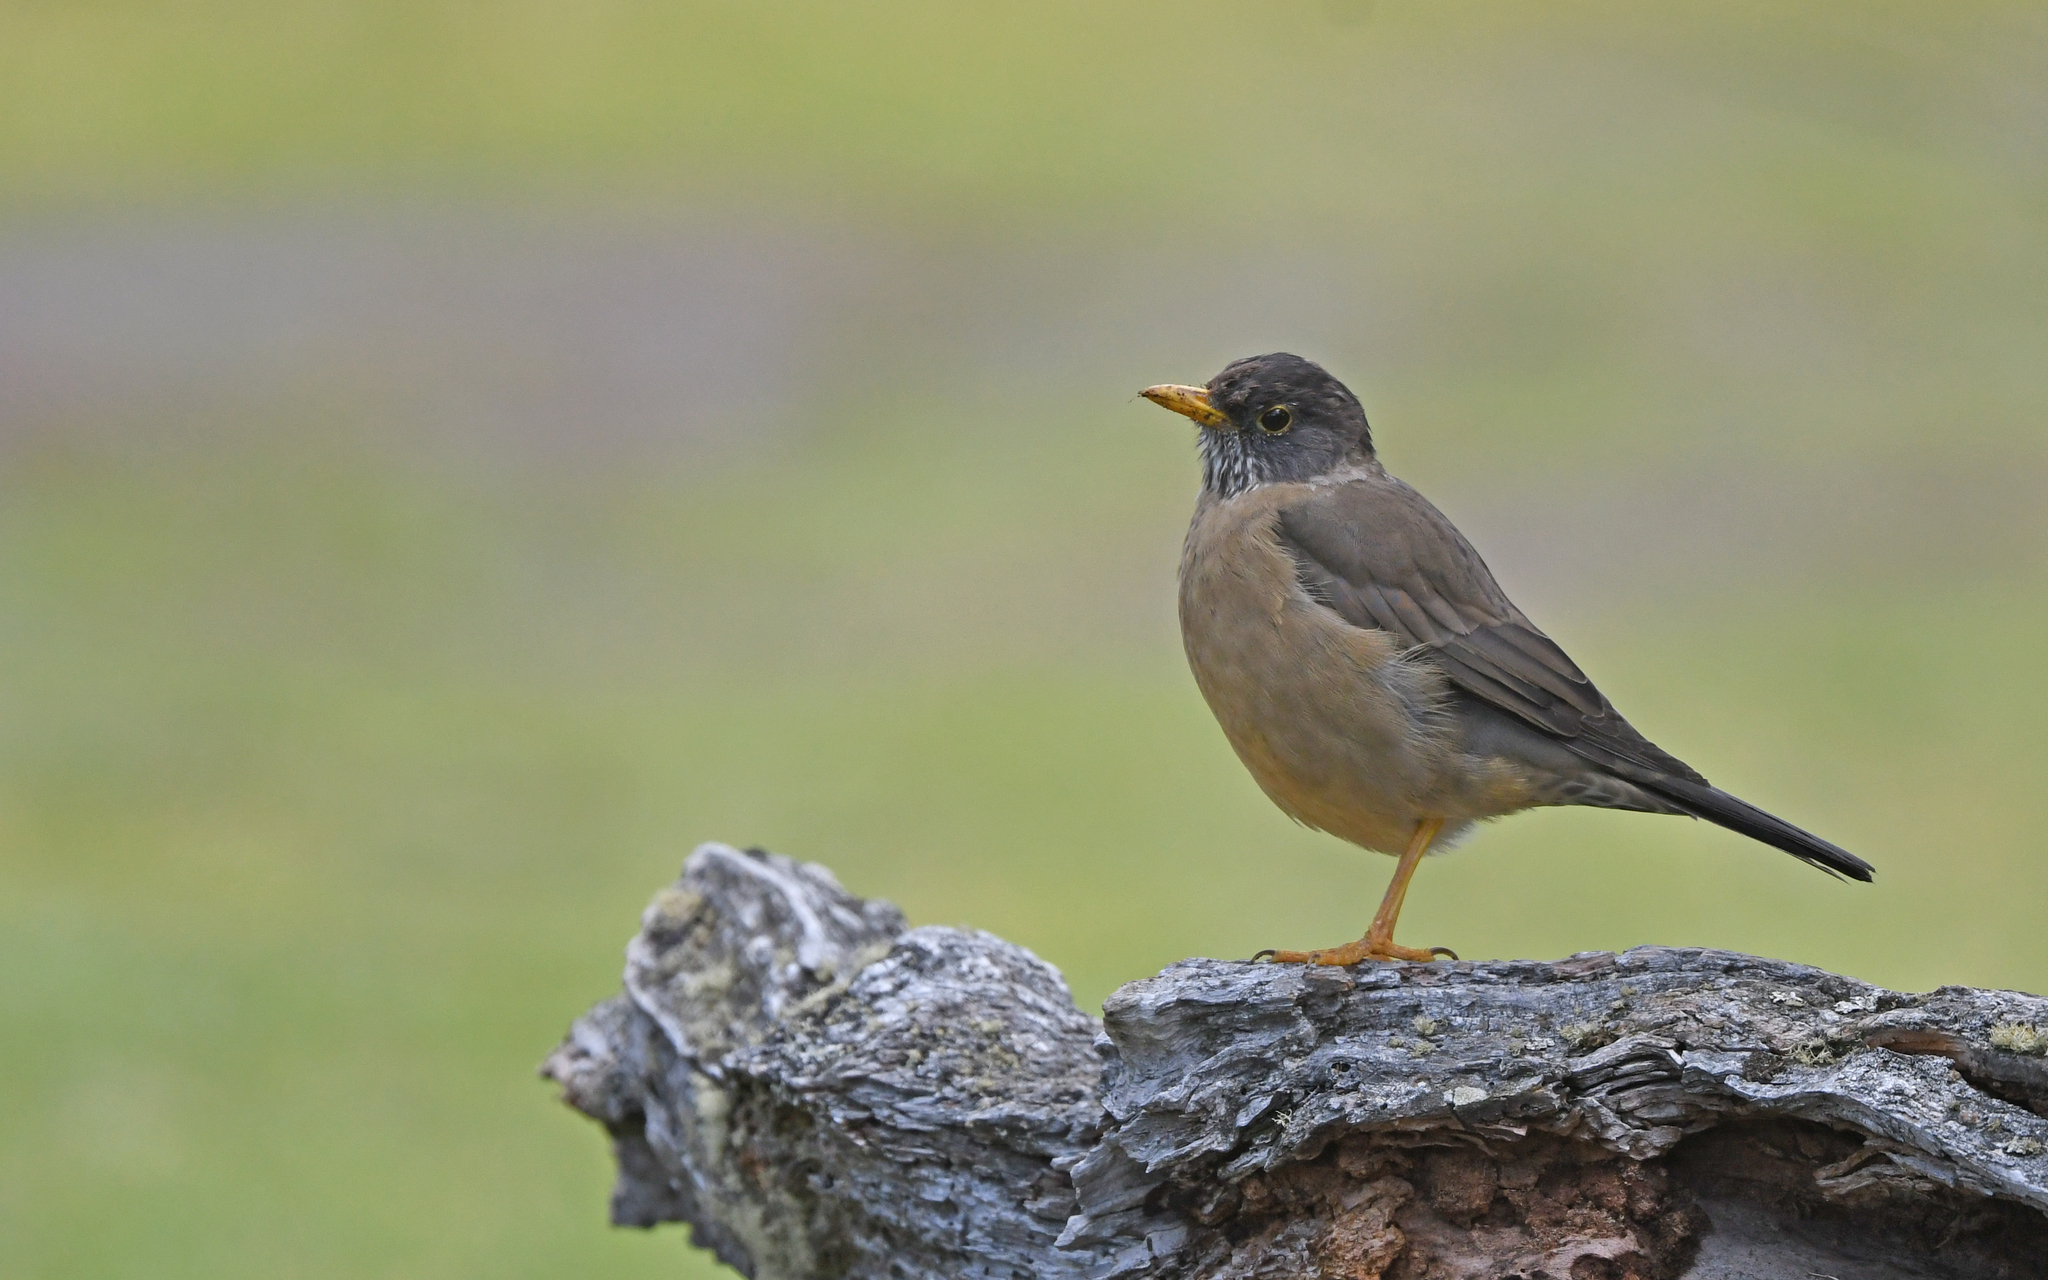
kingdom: Animalia
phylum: Chordata
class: Aves
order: Passeriformes
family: Turdidae
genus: Turdus
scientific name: Turdus falcklandii
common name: Austral thrush
